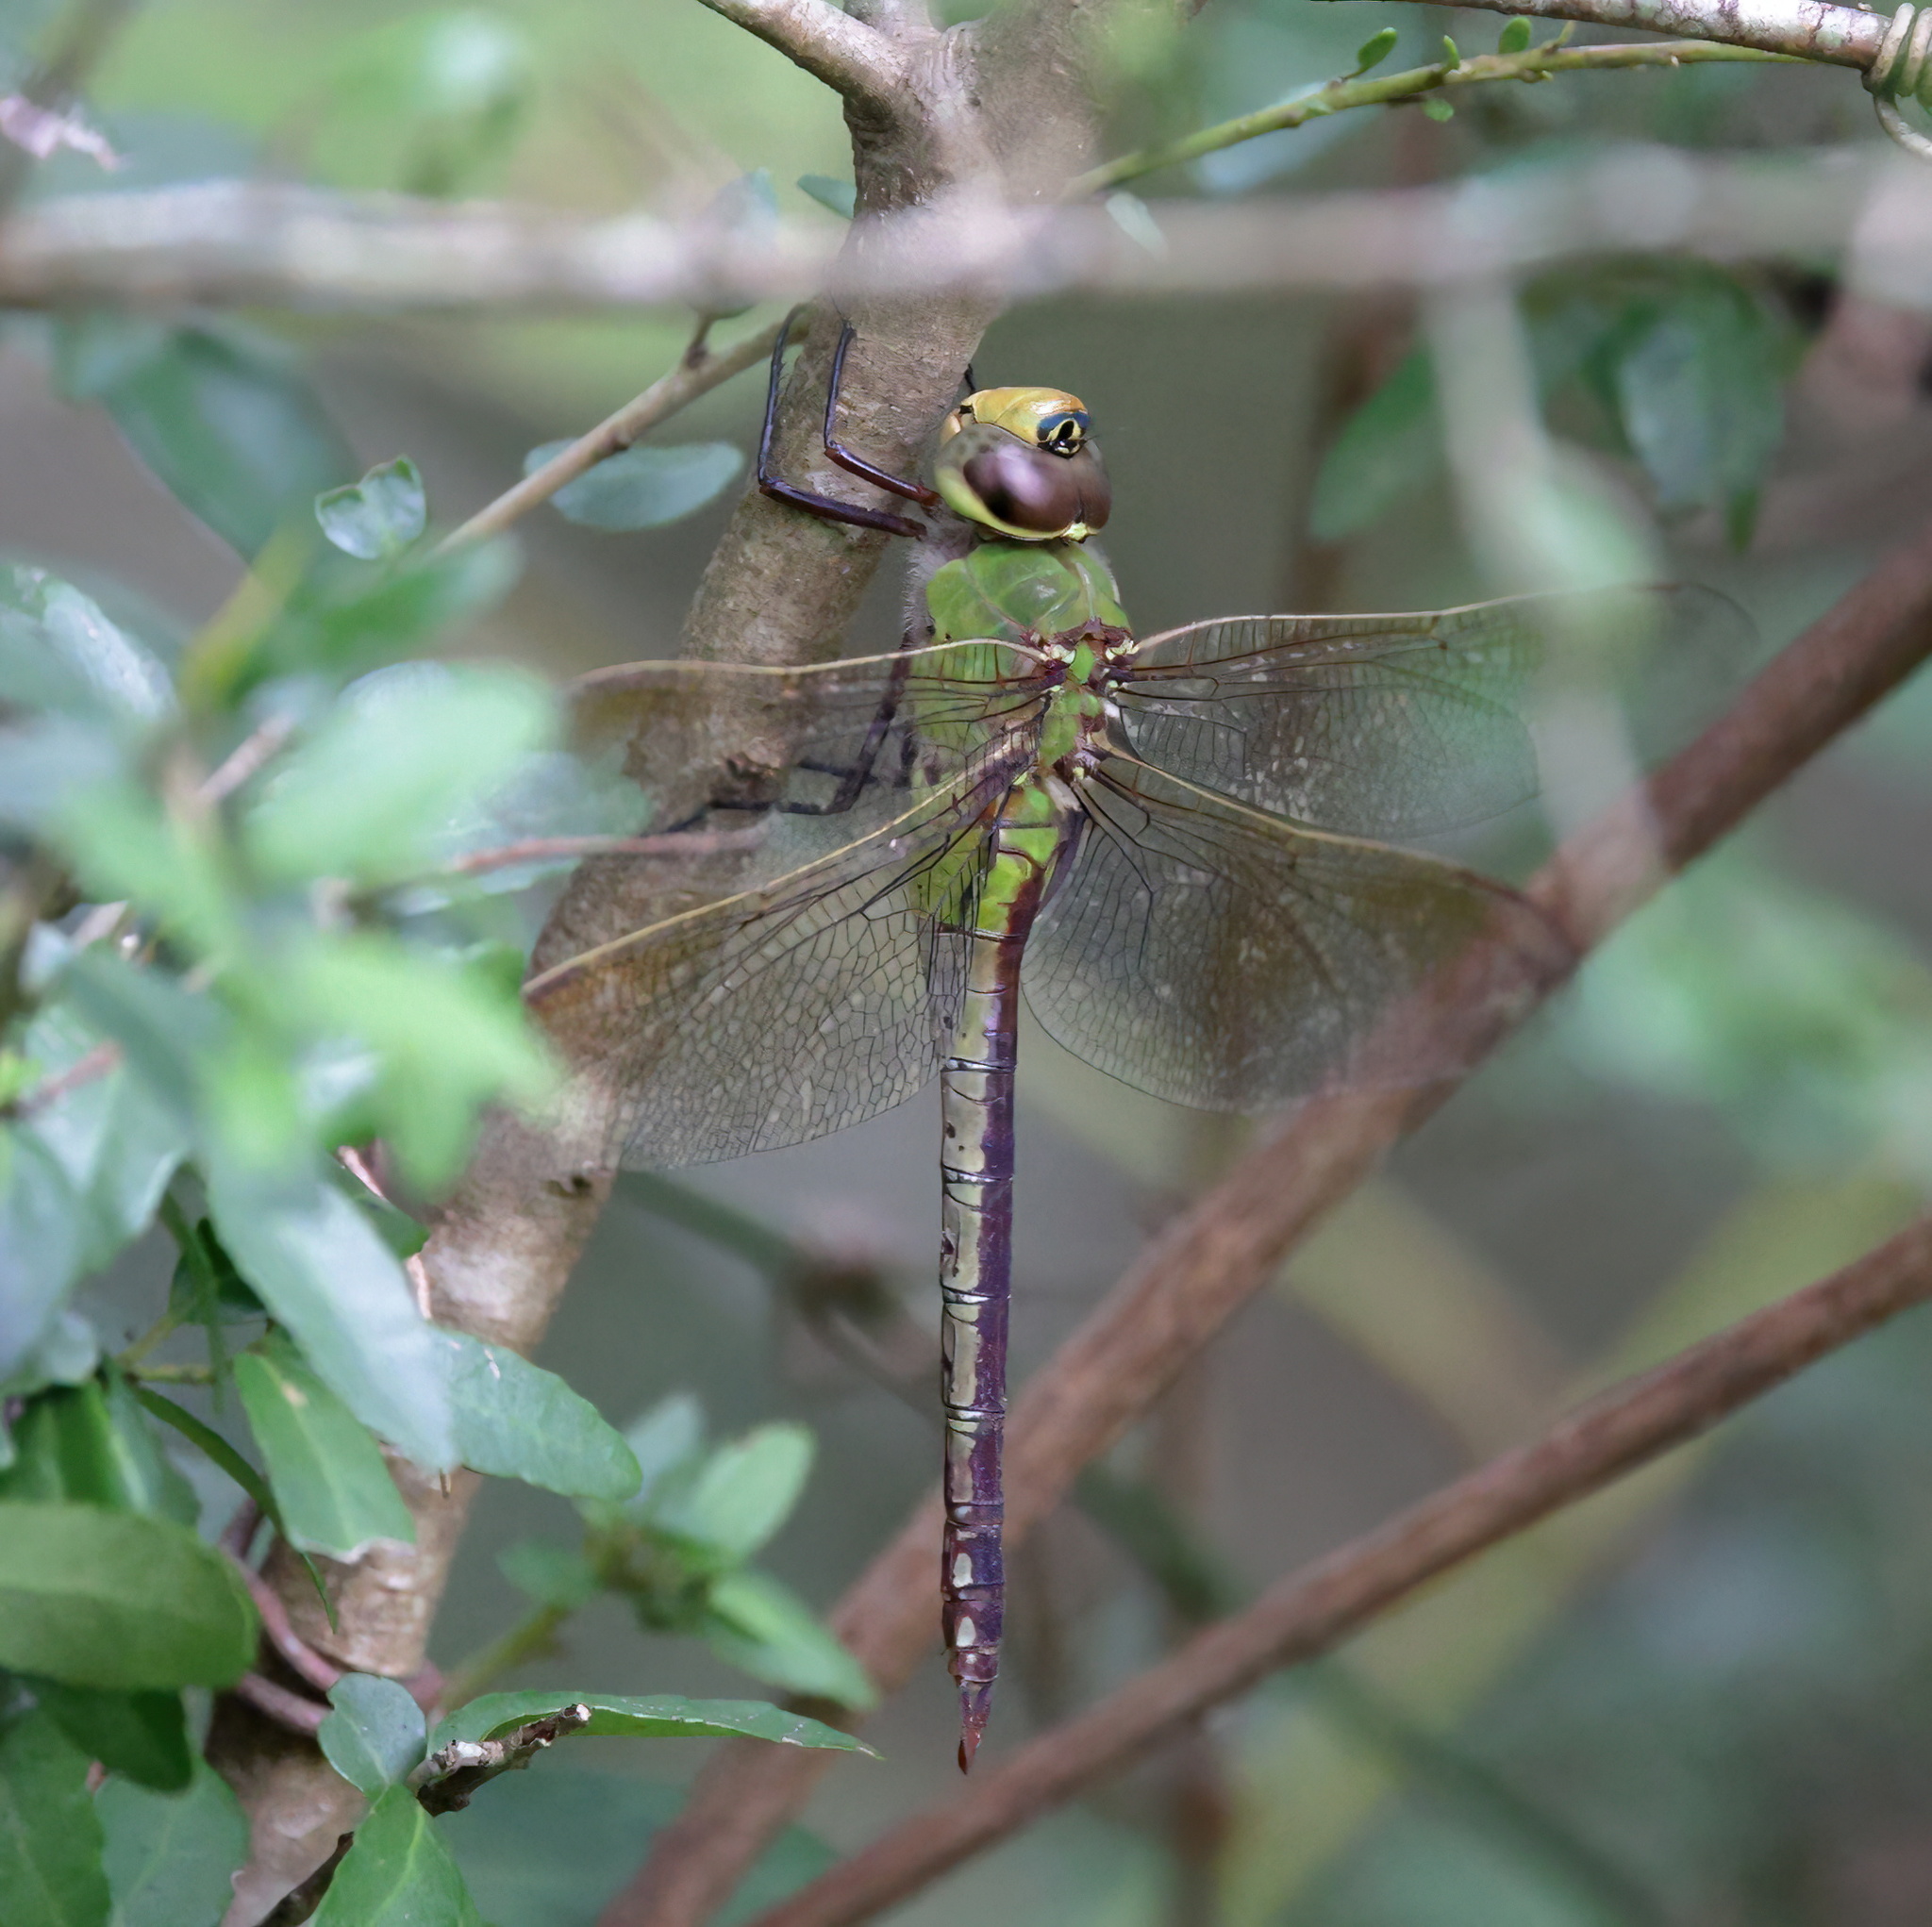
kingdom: Animalia
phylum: Arthropoda
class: Insecta
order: Odonata
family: Aeshnidae
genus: Anax
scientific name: Anax junius
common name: Common green darner
